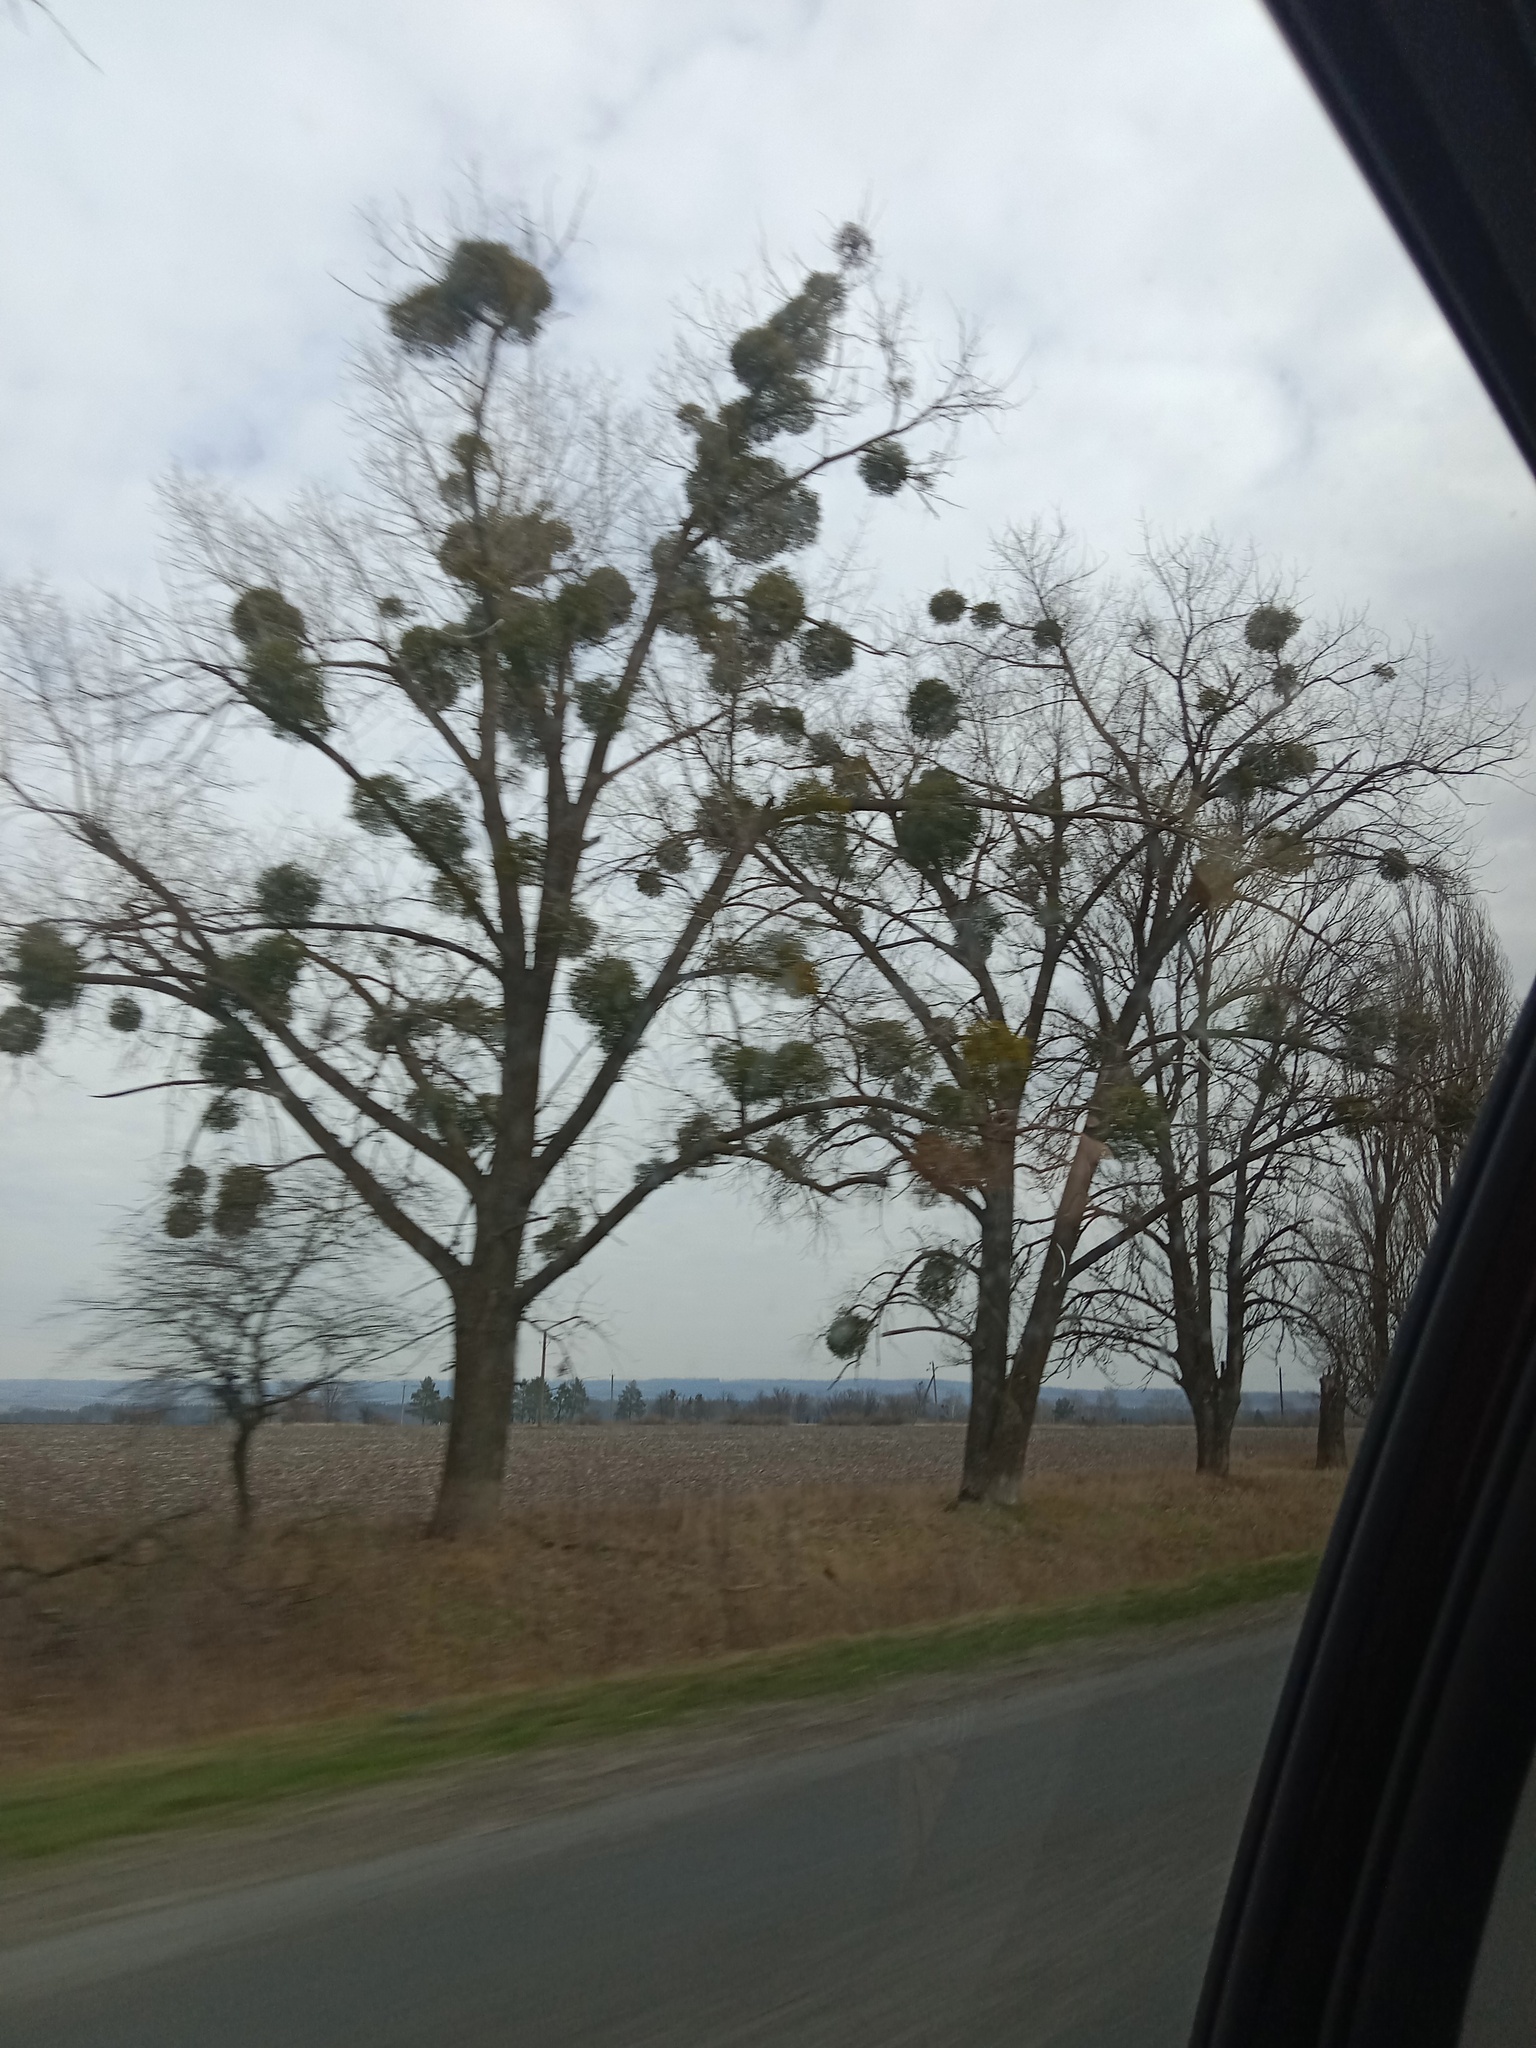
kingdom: Plantae
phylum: Tracheophyta
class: Magnoliopsida
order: Santalales
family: Viscaceae
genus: Viscum
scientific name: Viscum album
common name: Mistletoe
